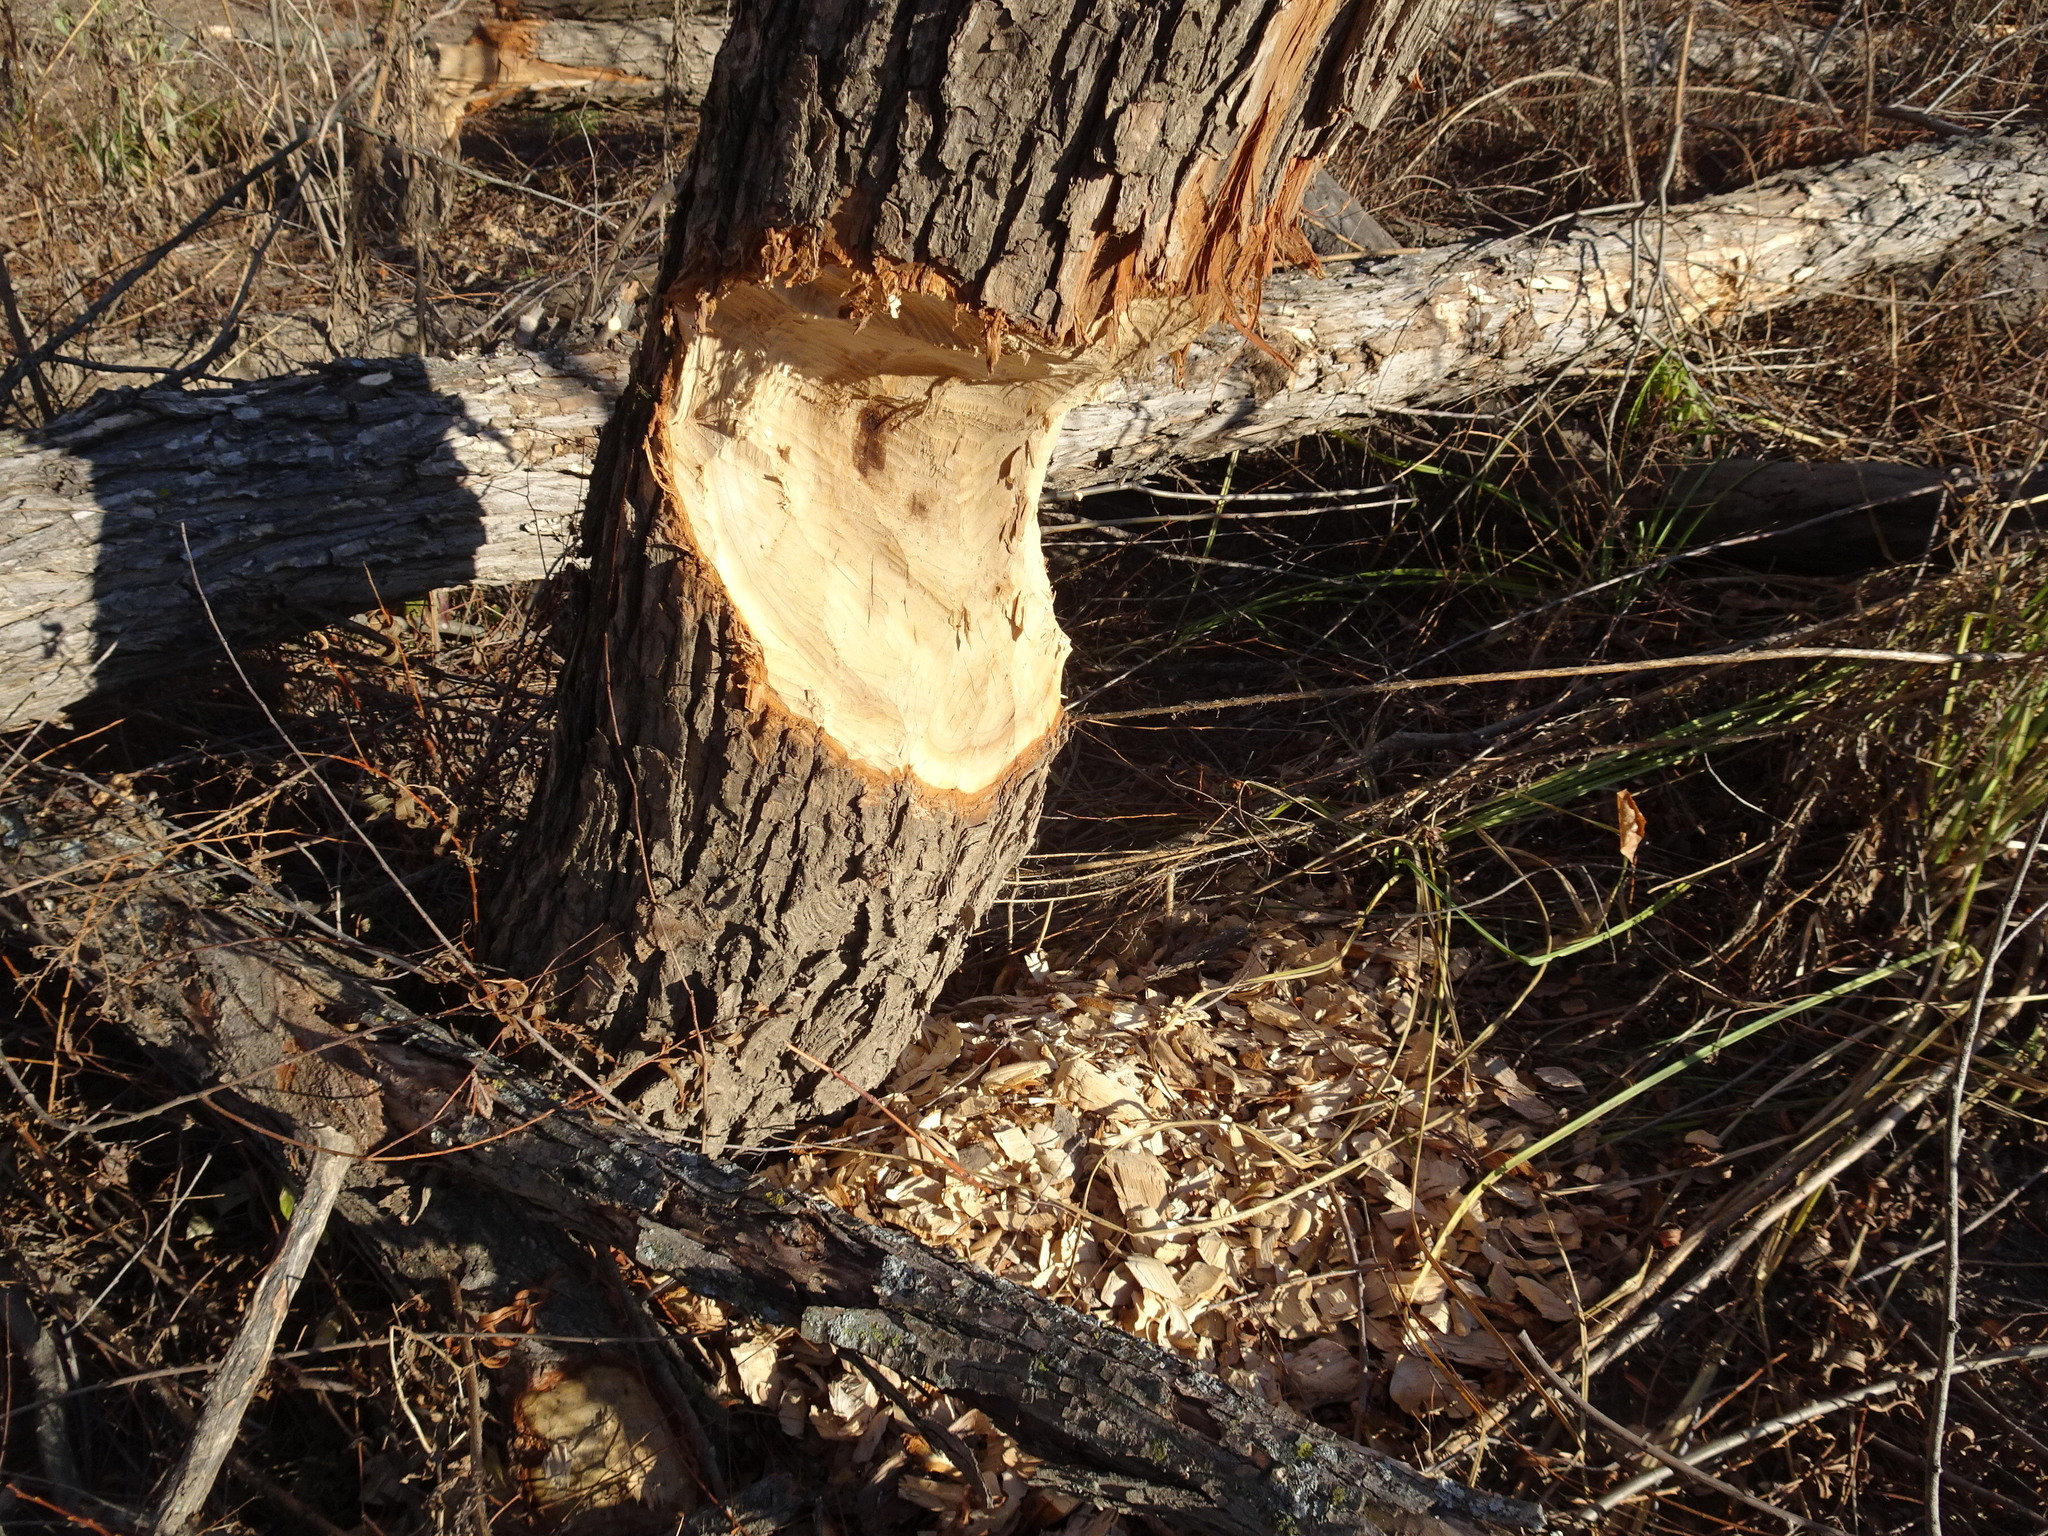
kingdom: Animalia
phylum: Chordata
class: Mammalia
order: Rodentia
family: Castoridae
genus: Castor
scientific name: Castor canadensis
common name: American beaver
